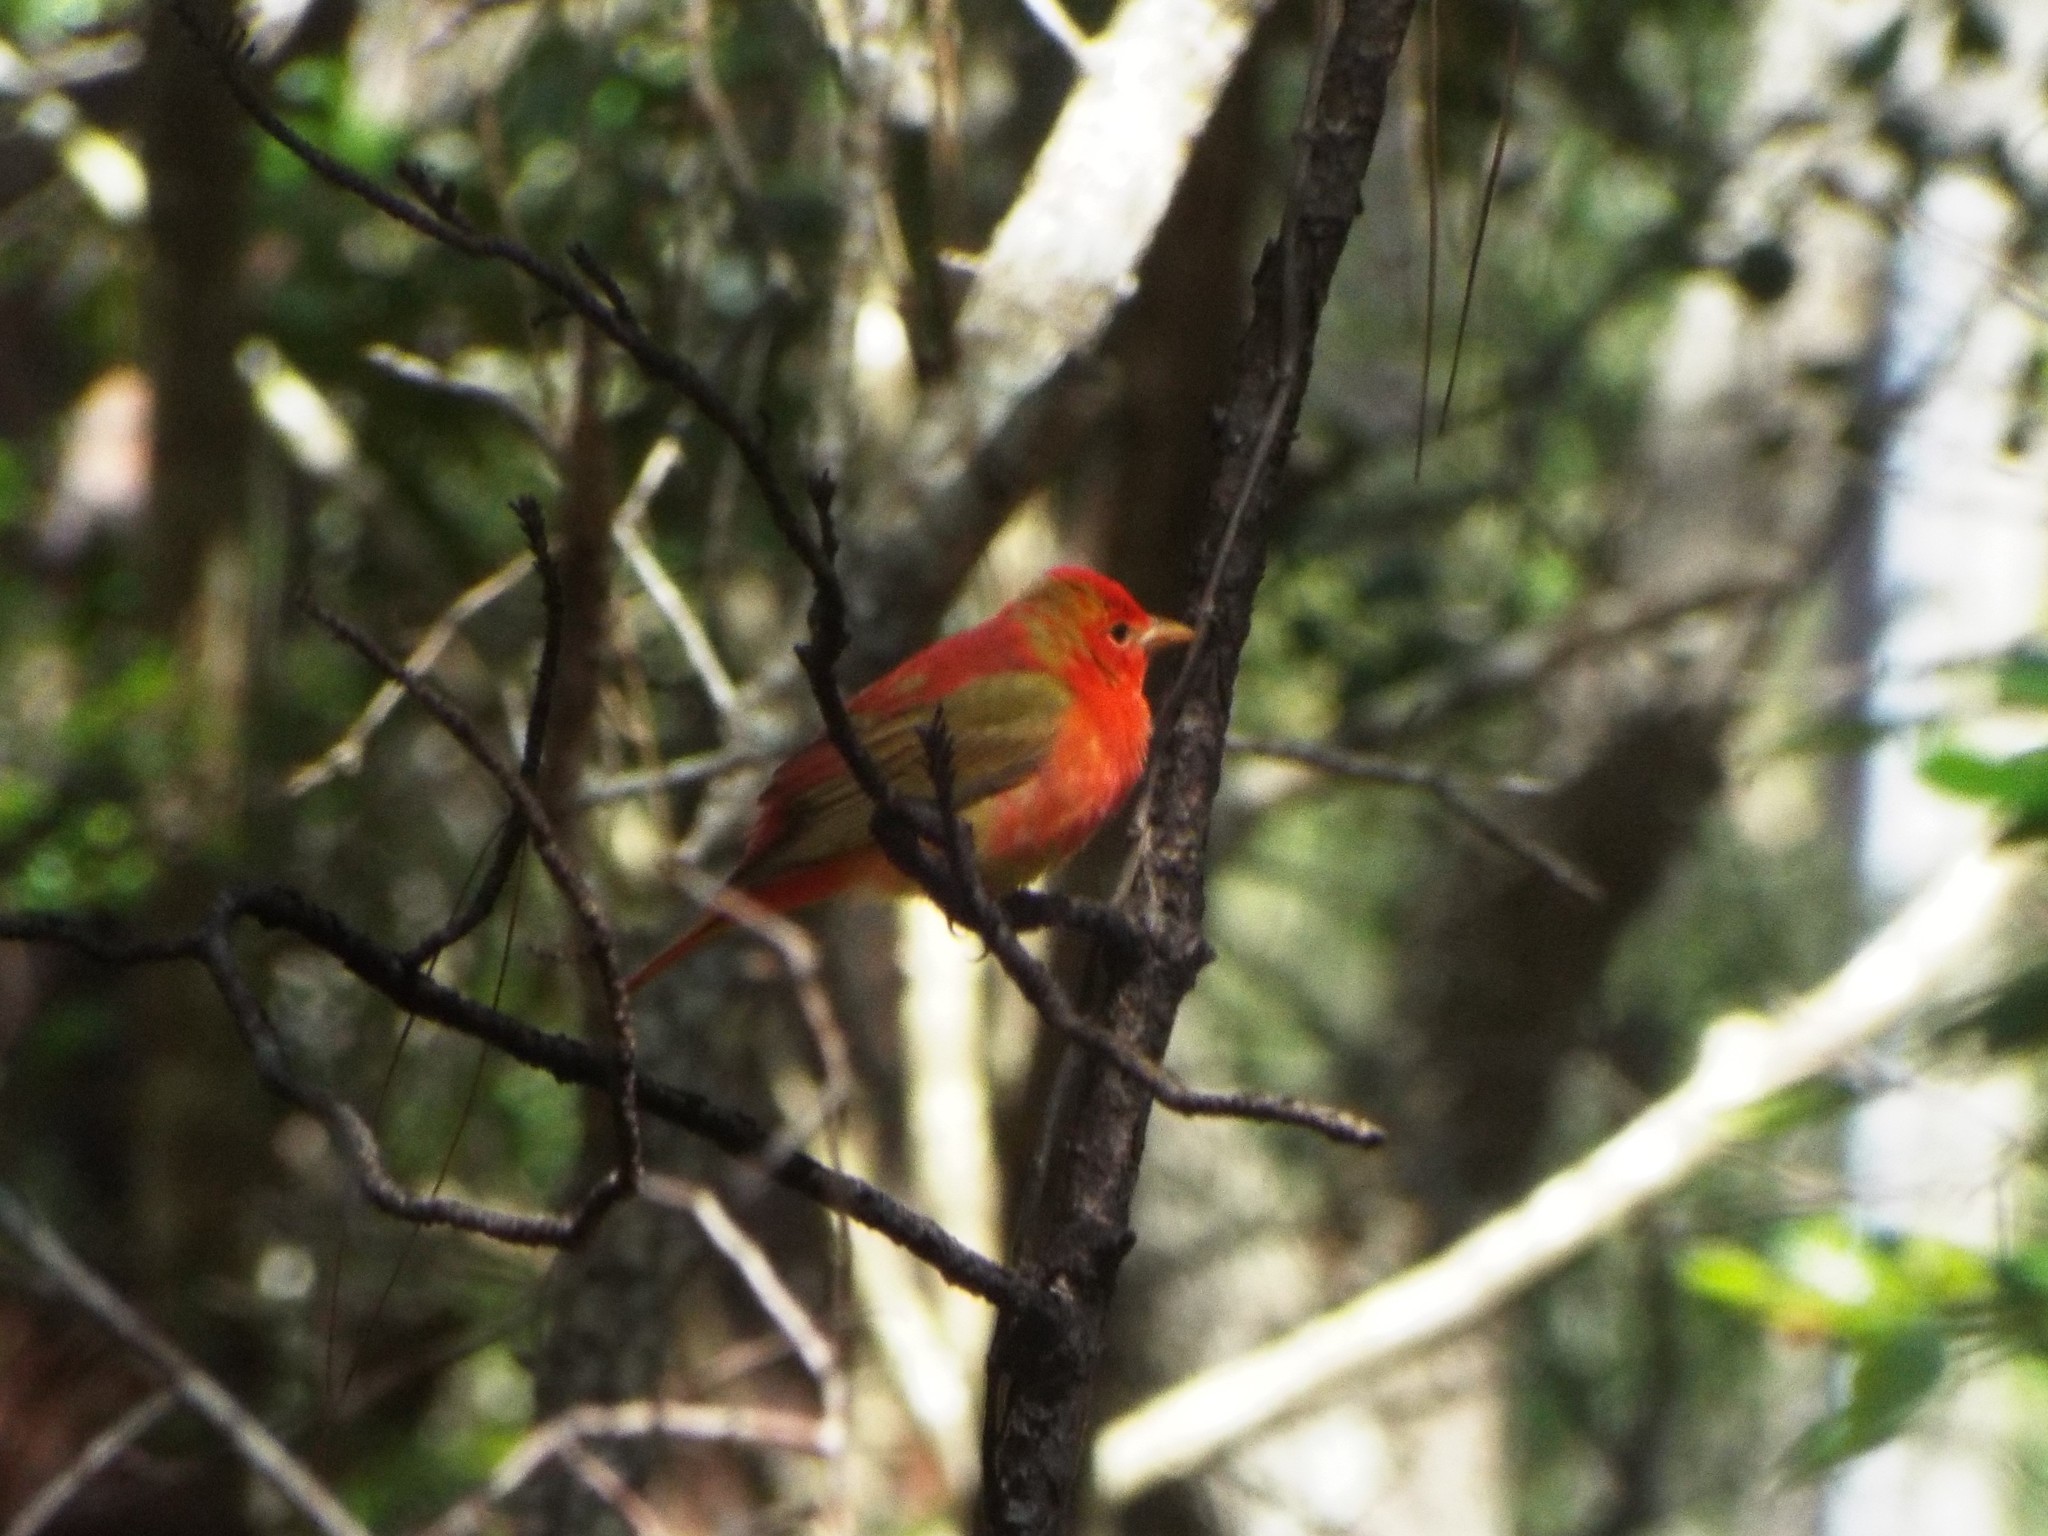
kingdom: Animalia
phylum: Chordata
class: Aves
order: Passeriformes
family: Cardinalidae
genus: Piranga
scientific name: Piranga rubra
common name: Summer tanager
